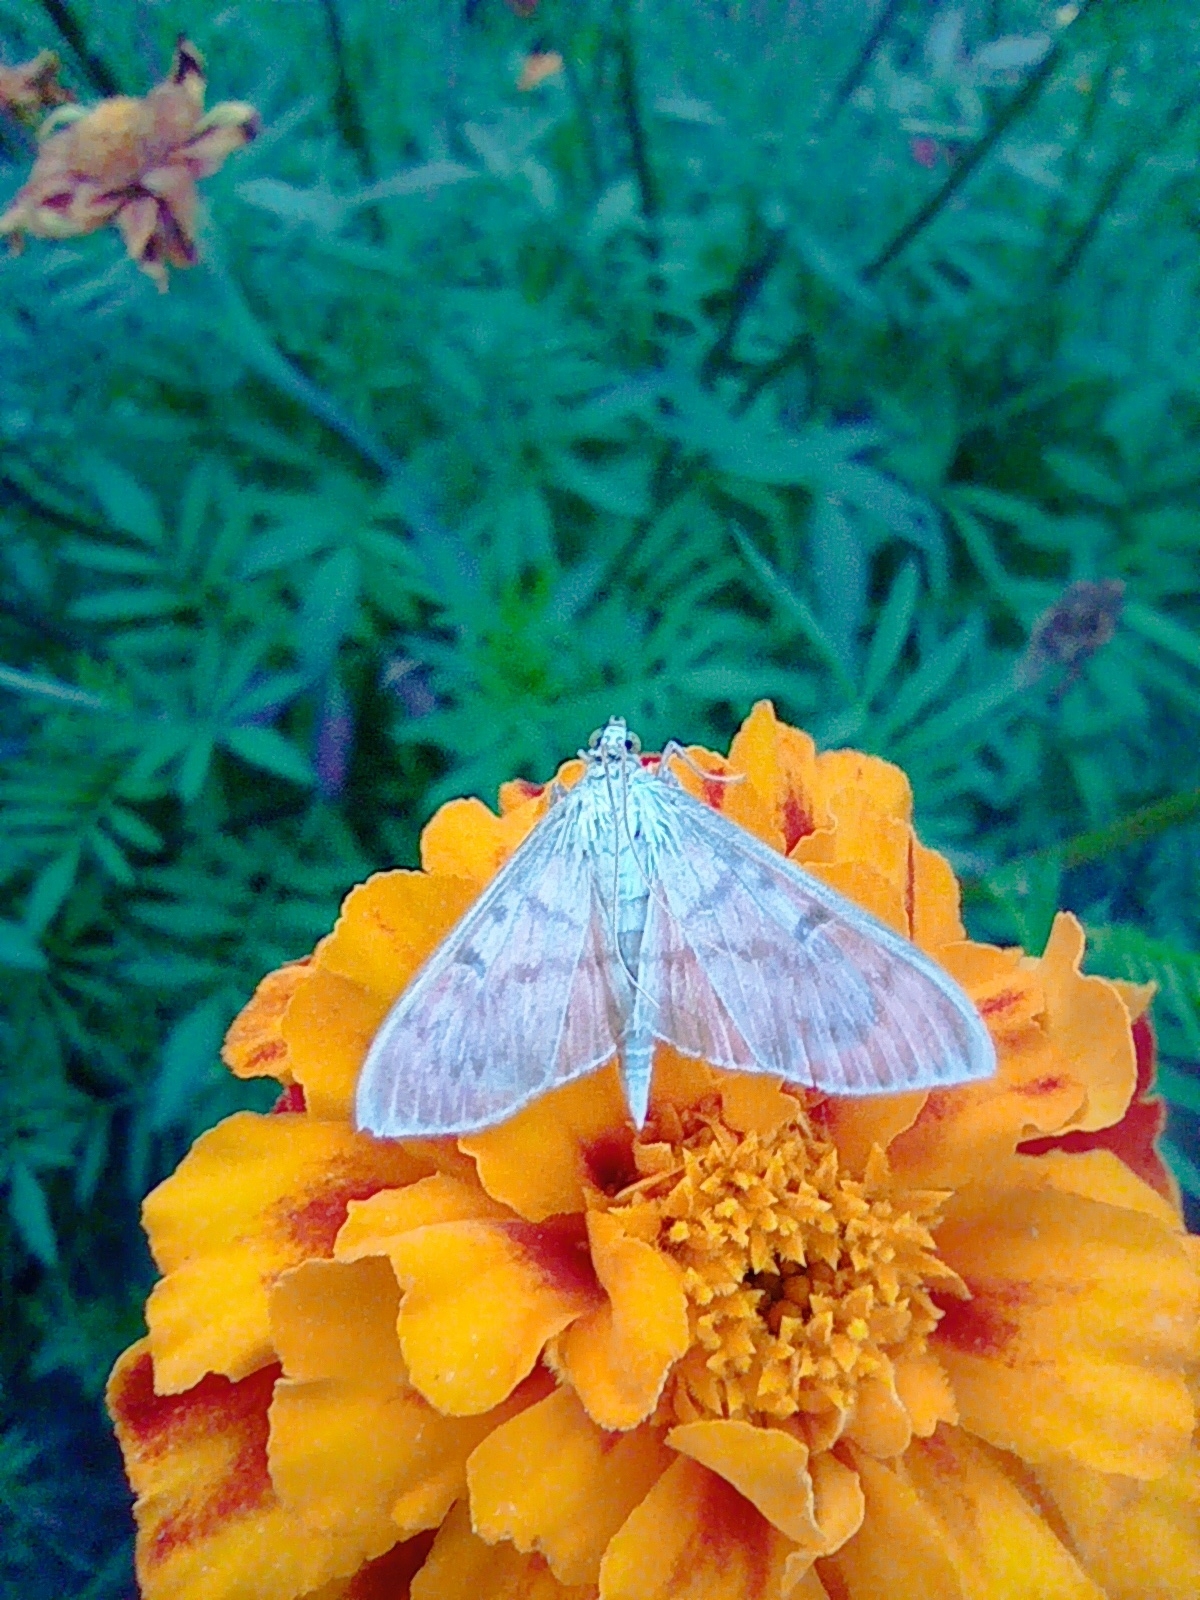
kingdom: Animalia
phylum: Arthropoda
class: Insecta
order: Lepidoptera
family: Crambidae
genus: Patania
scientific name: Patania ruralis
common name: Mother of pearl
